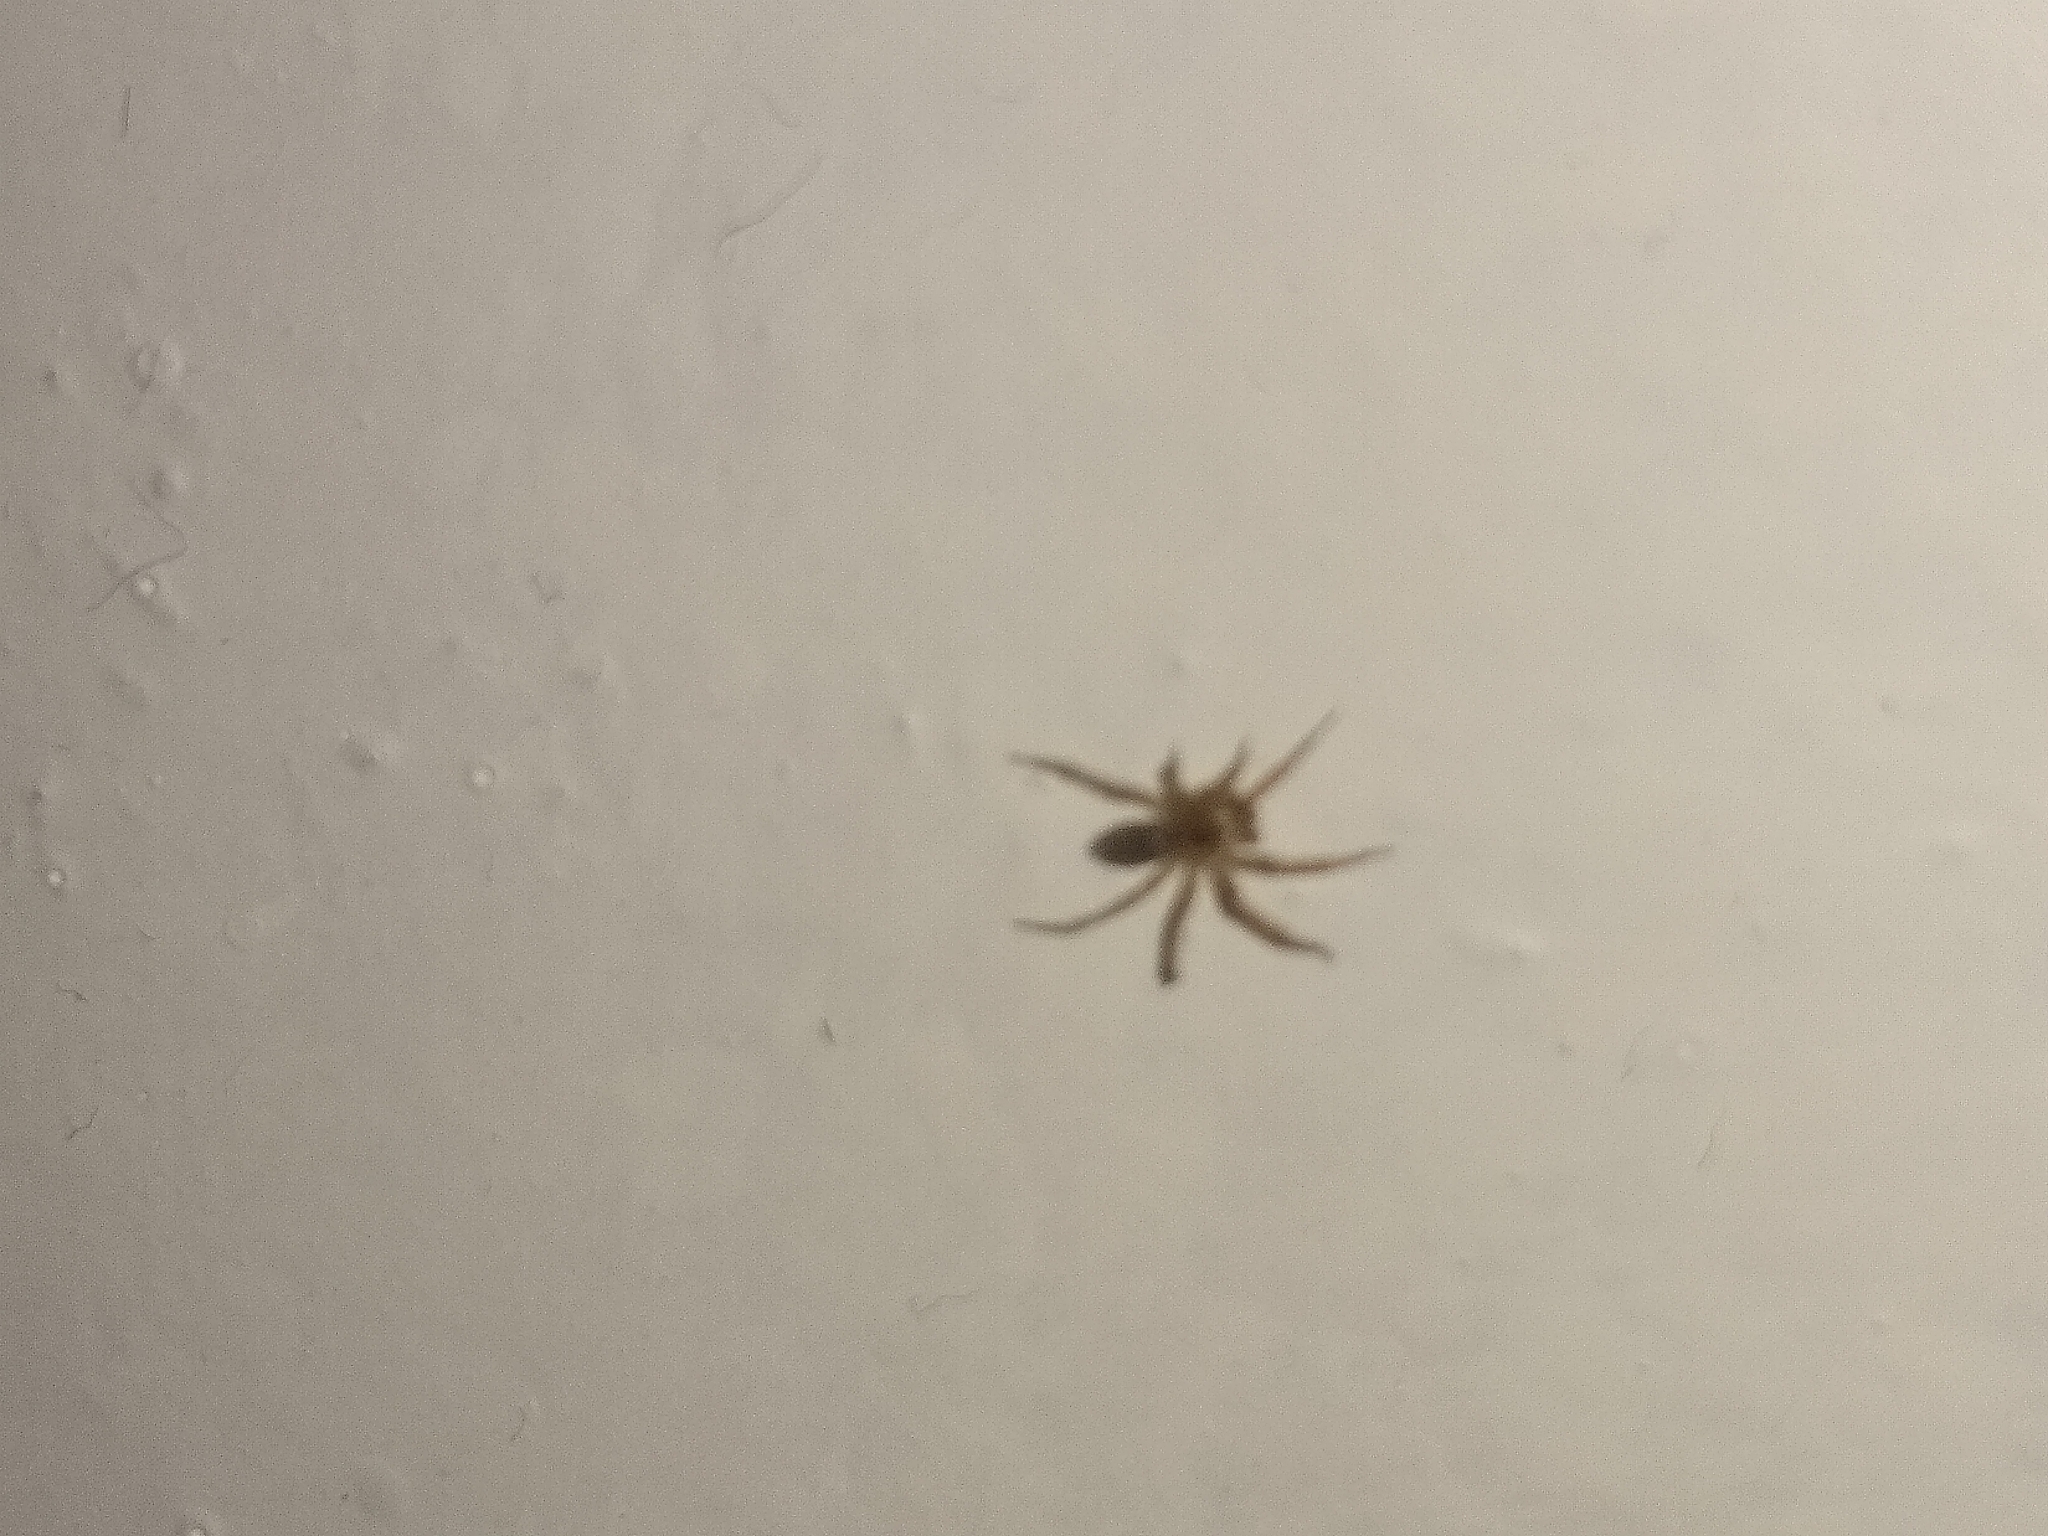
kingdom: Animalia
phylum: Arthropoda
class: Arachnida
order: Araneae
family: Oecobiidae
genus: Oecobius
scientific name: Oecobius navus
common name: Flatmesh weaver
